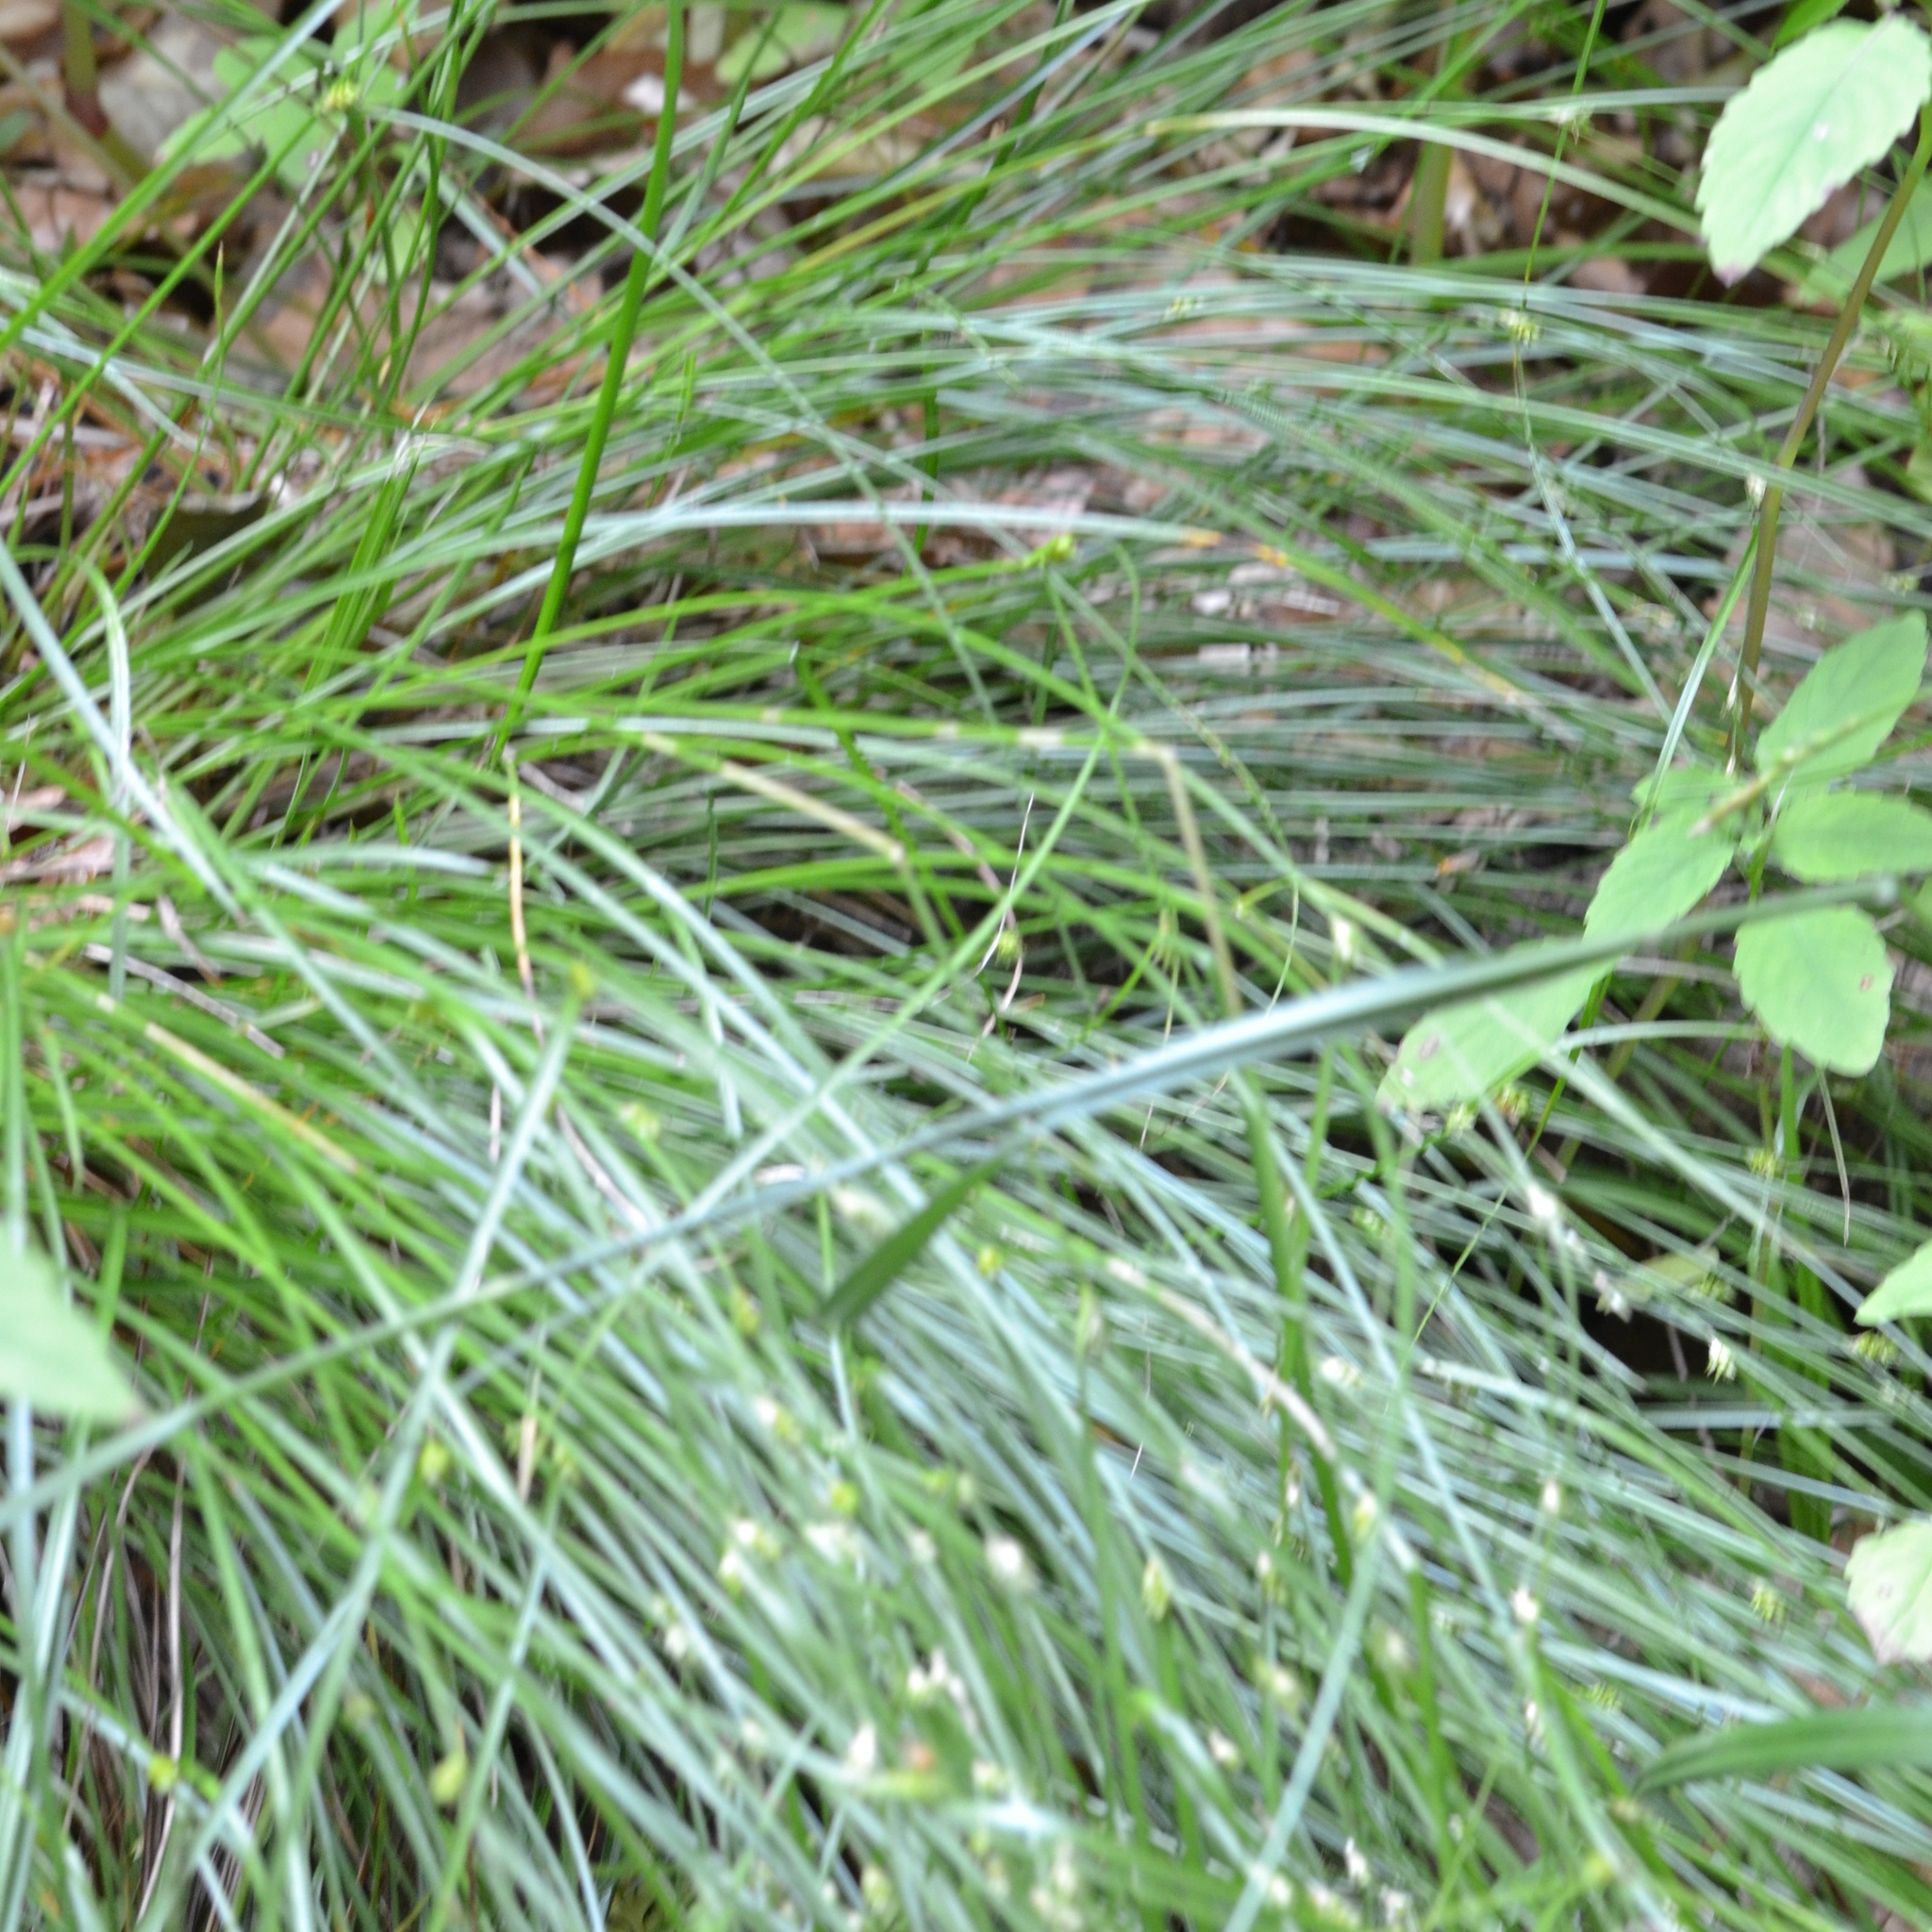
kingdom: Plantae
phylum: Tracheophyta
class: Liliopsida
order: Poales
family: Cyperaceae
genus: Carex
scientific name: Carex remota
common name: Remote sedge
